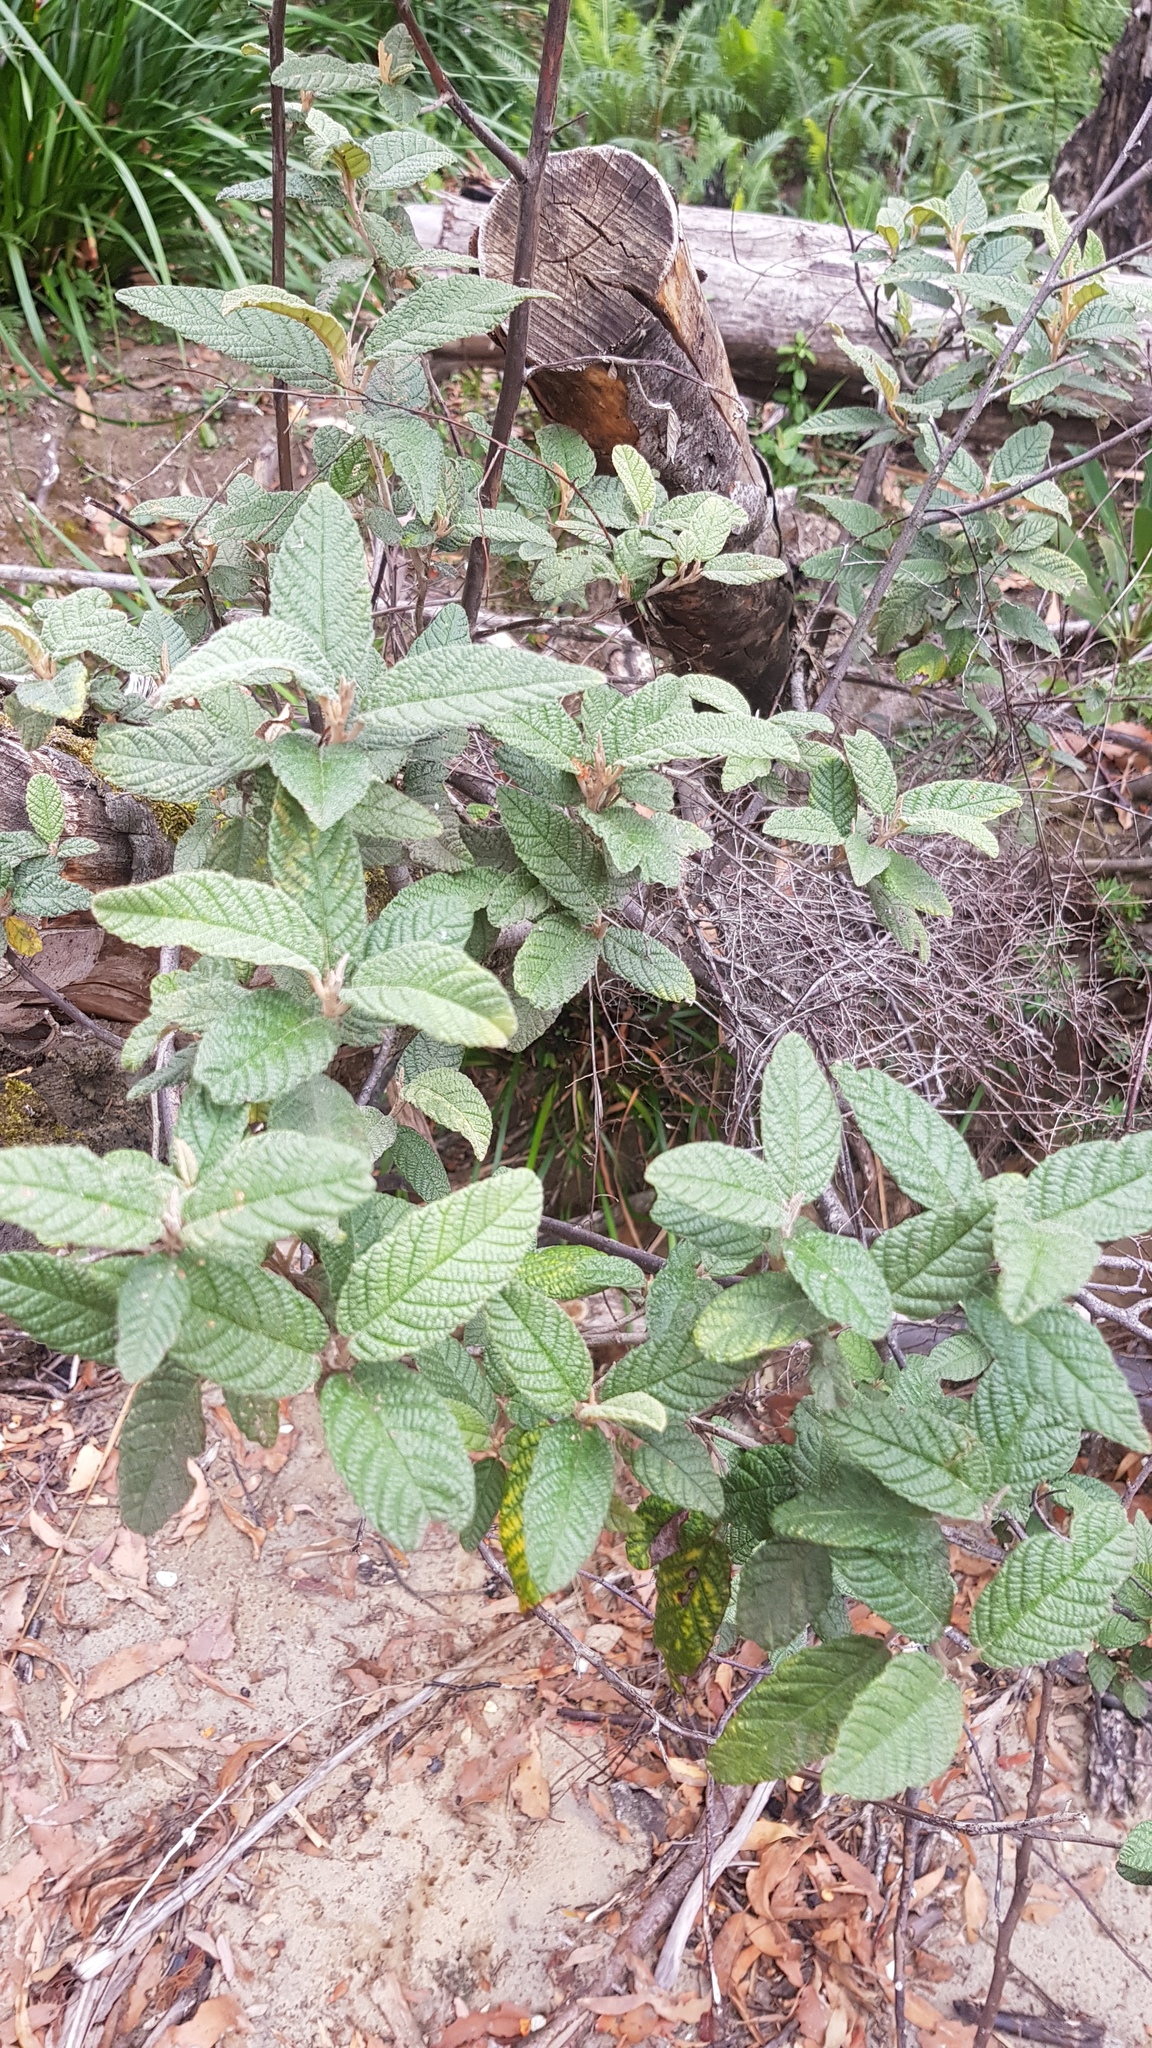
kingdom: Plantae
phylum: Tracheophyta
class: Magnoliopsida
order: Rosales
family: Rhamnaceae
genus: Pomaderris
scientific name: Pomaderris apetala
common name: Hazel pomaderris
